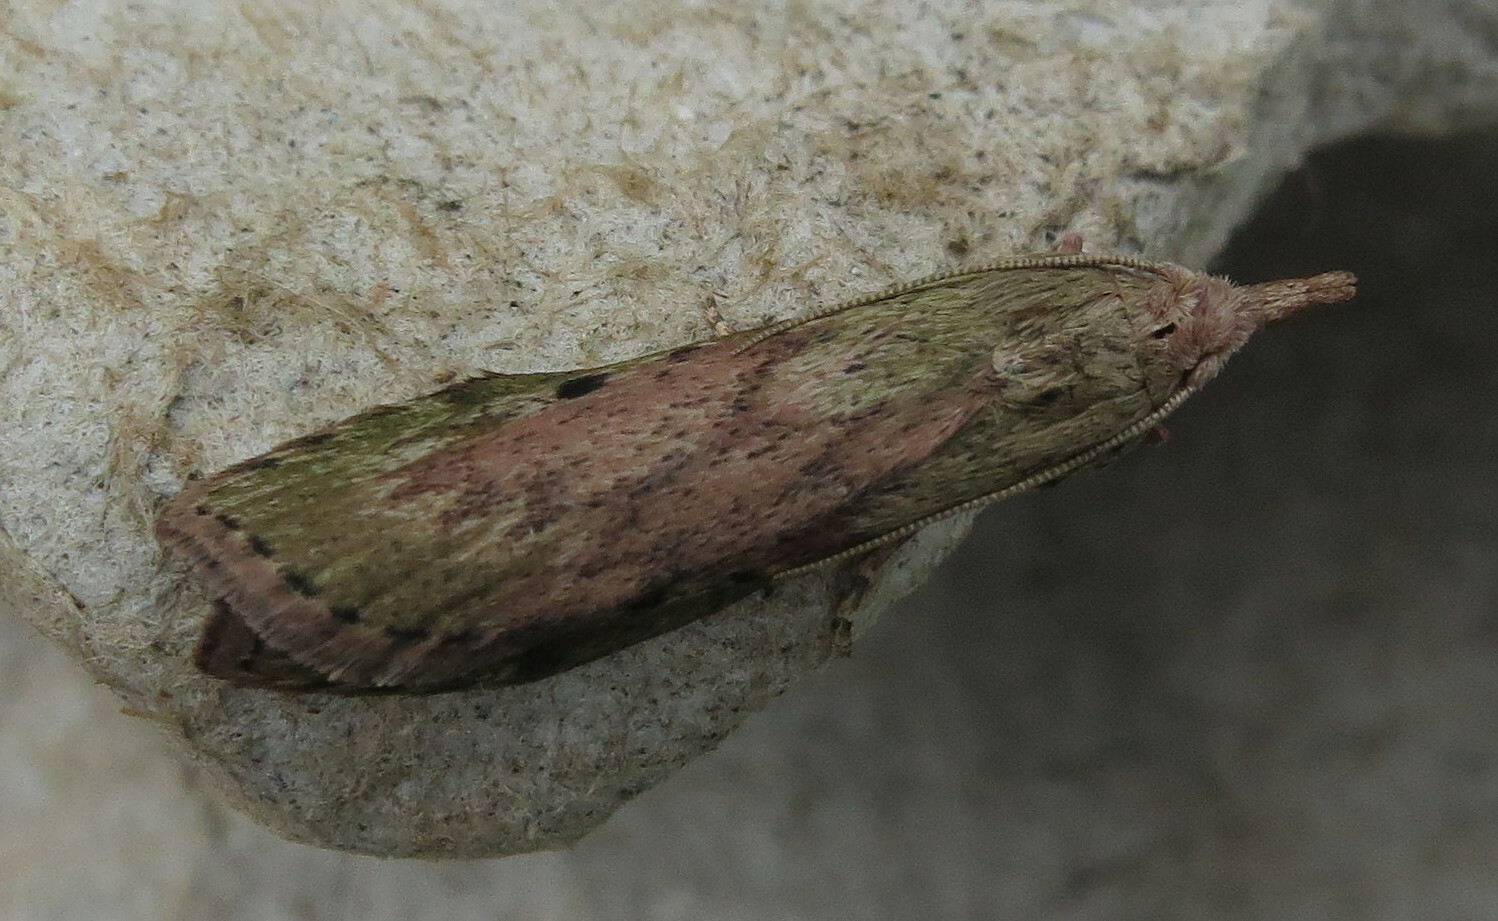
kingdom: Animalia
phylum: Arthropoda
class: Insecta
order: Lepidoptera
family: Pyralidae
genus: Aphomia
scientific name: Aphomia sociella
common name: Bee moth
